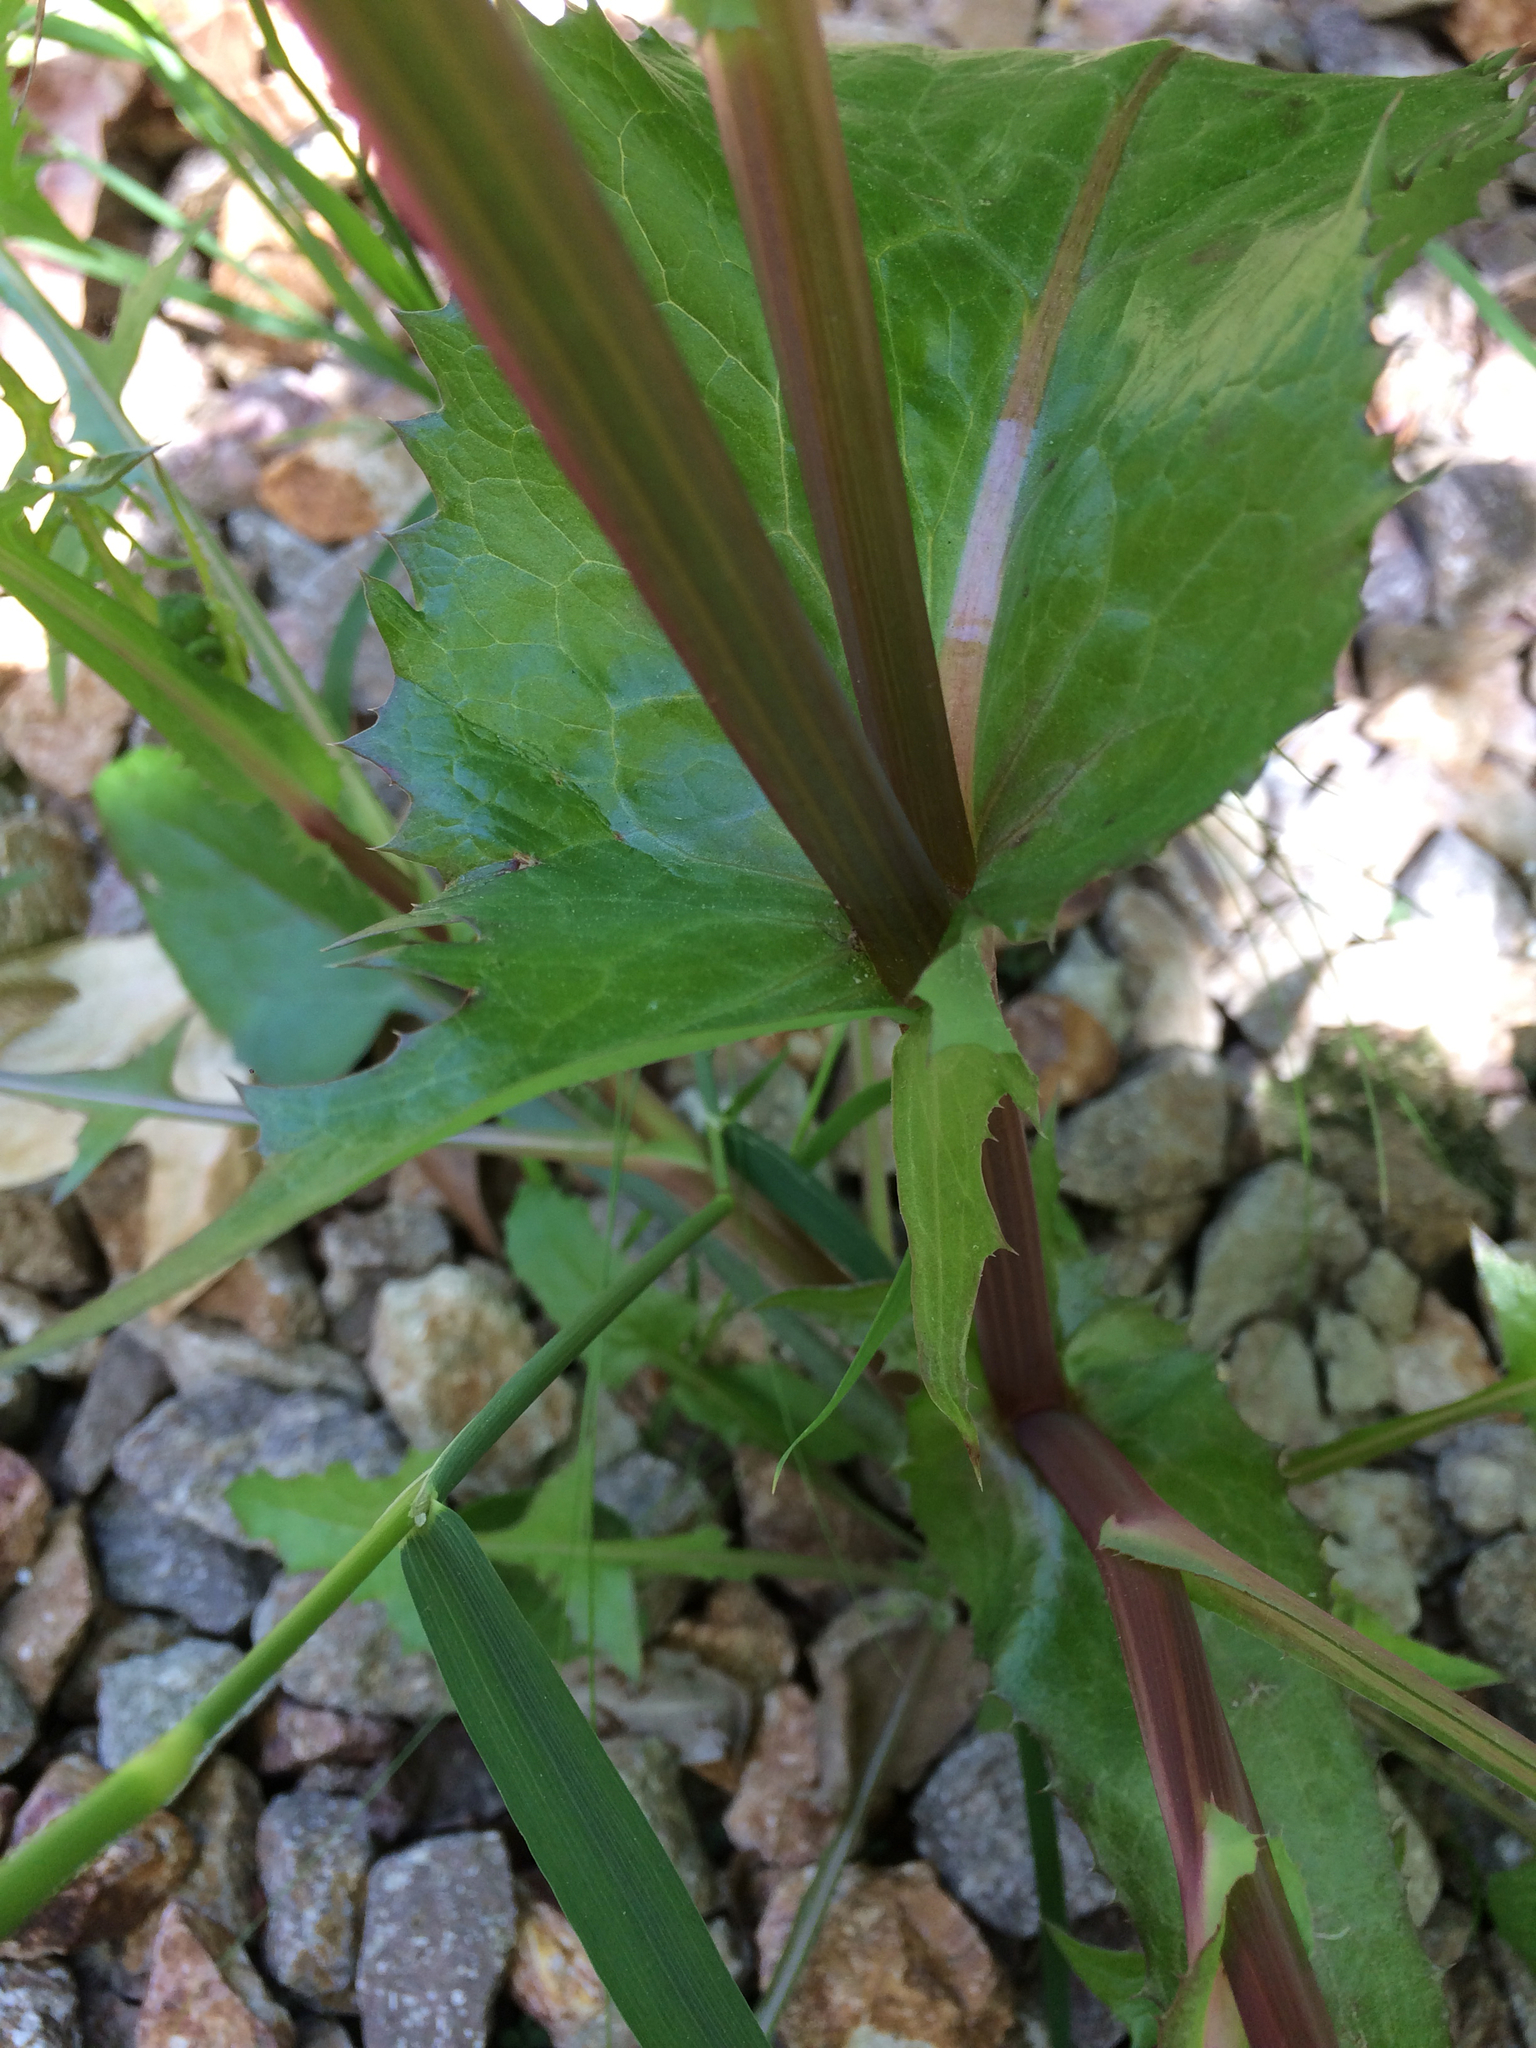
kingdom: Plantae
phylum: Tracheophyta
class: Magnoliopsida
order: Asterales
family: Asteraceae
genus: Sonchus
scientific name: Sonchus oleraceus
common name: Common sowthistle
